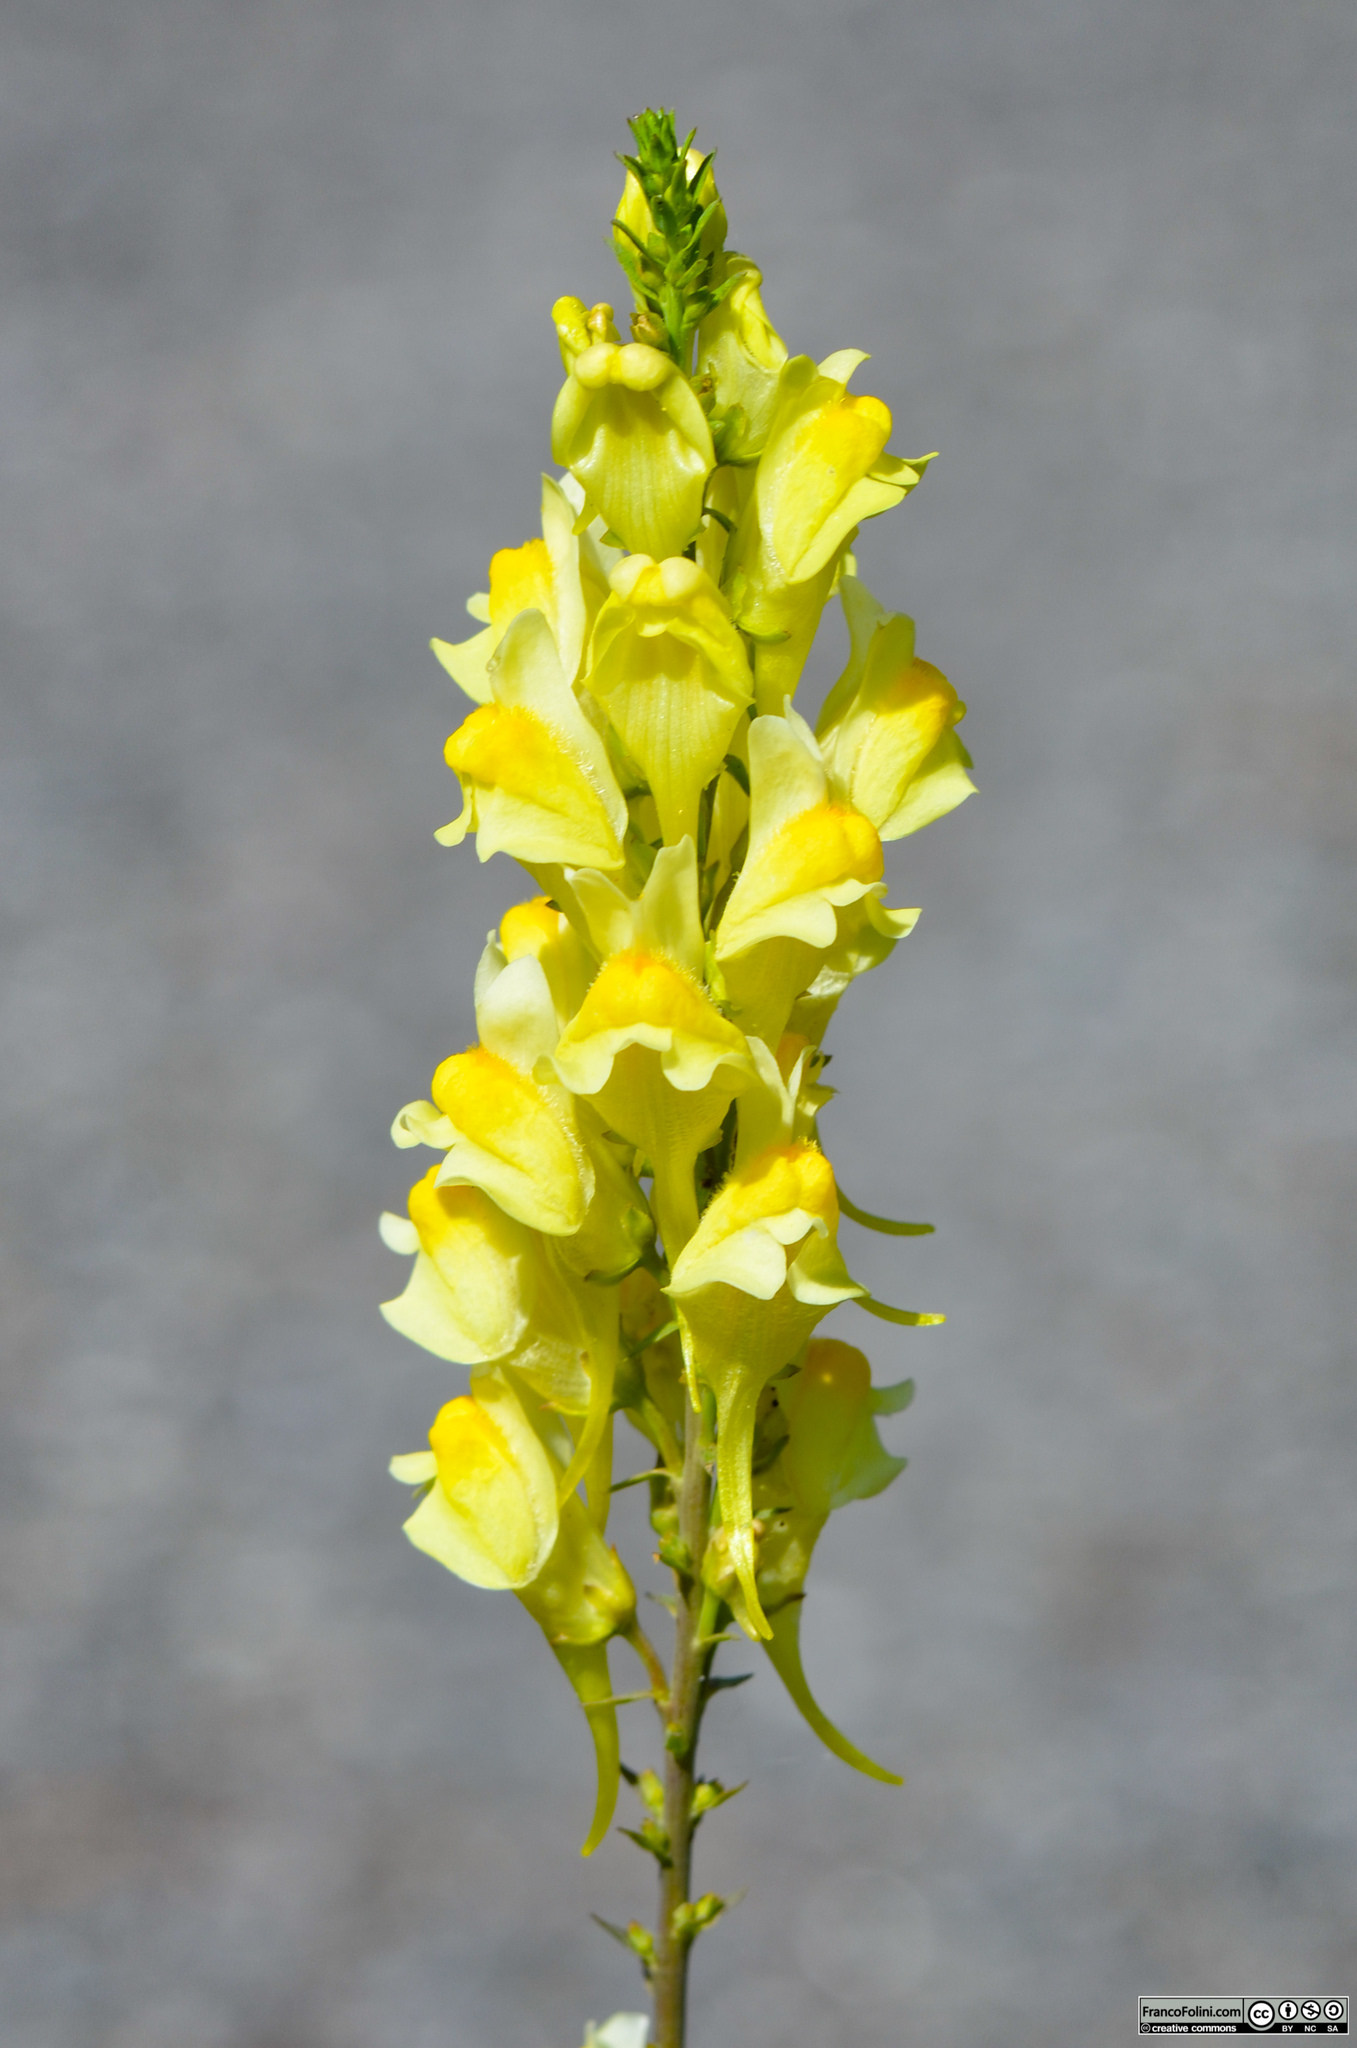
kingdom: Plantae
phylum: Tracheophyta
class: Magnoliopsida
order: Lamiales
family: Plantaginaceae
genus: Linaria
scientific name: Linaria vulgaris
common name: Butter and eggs
